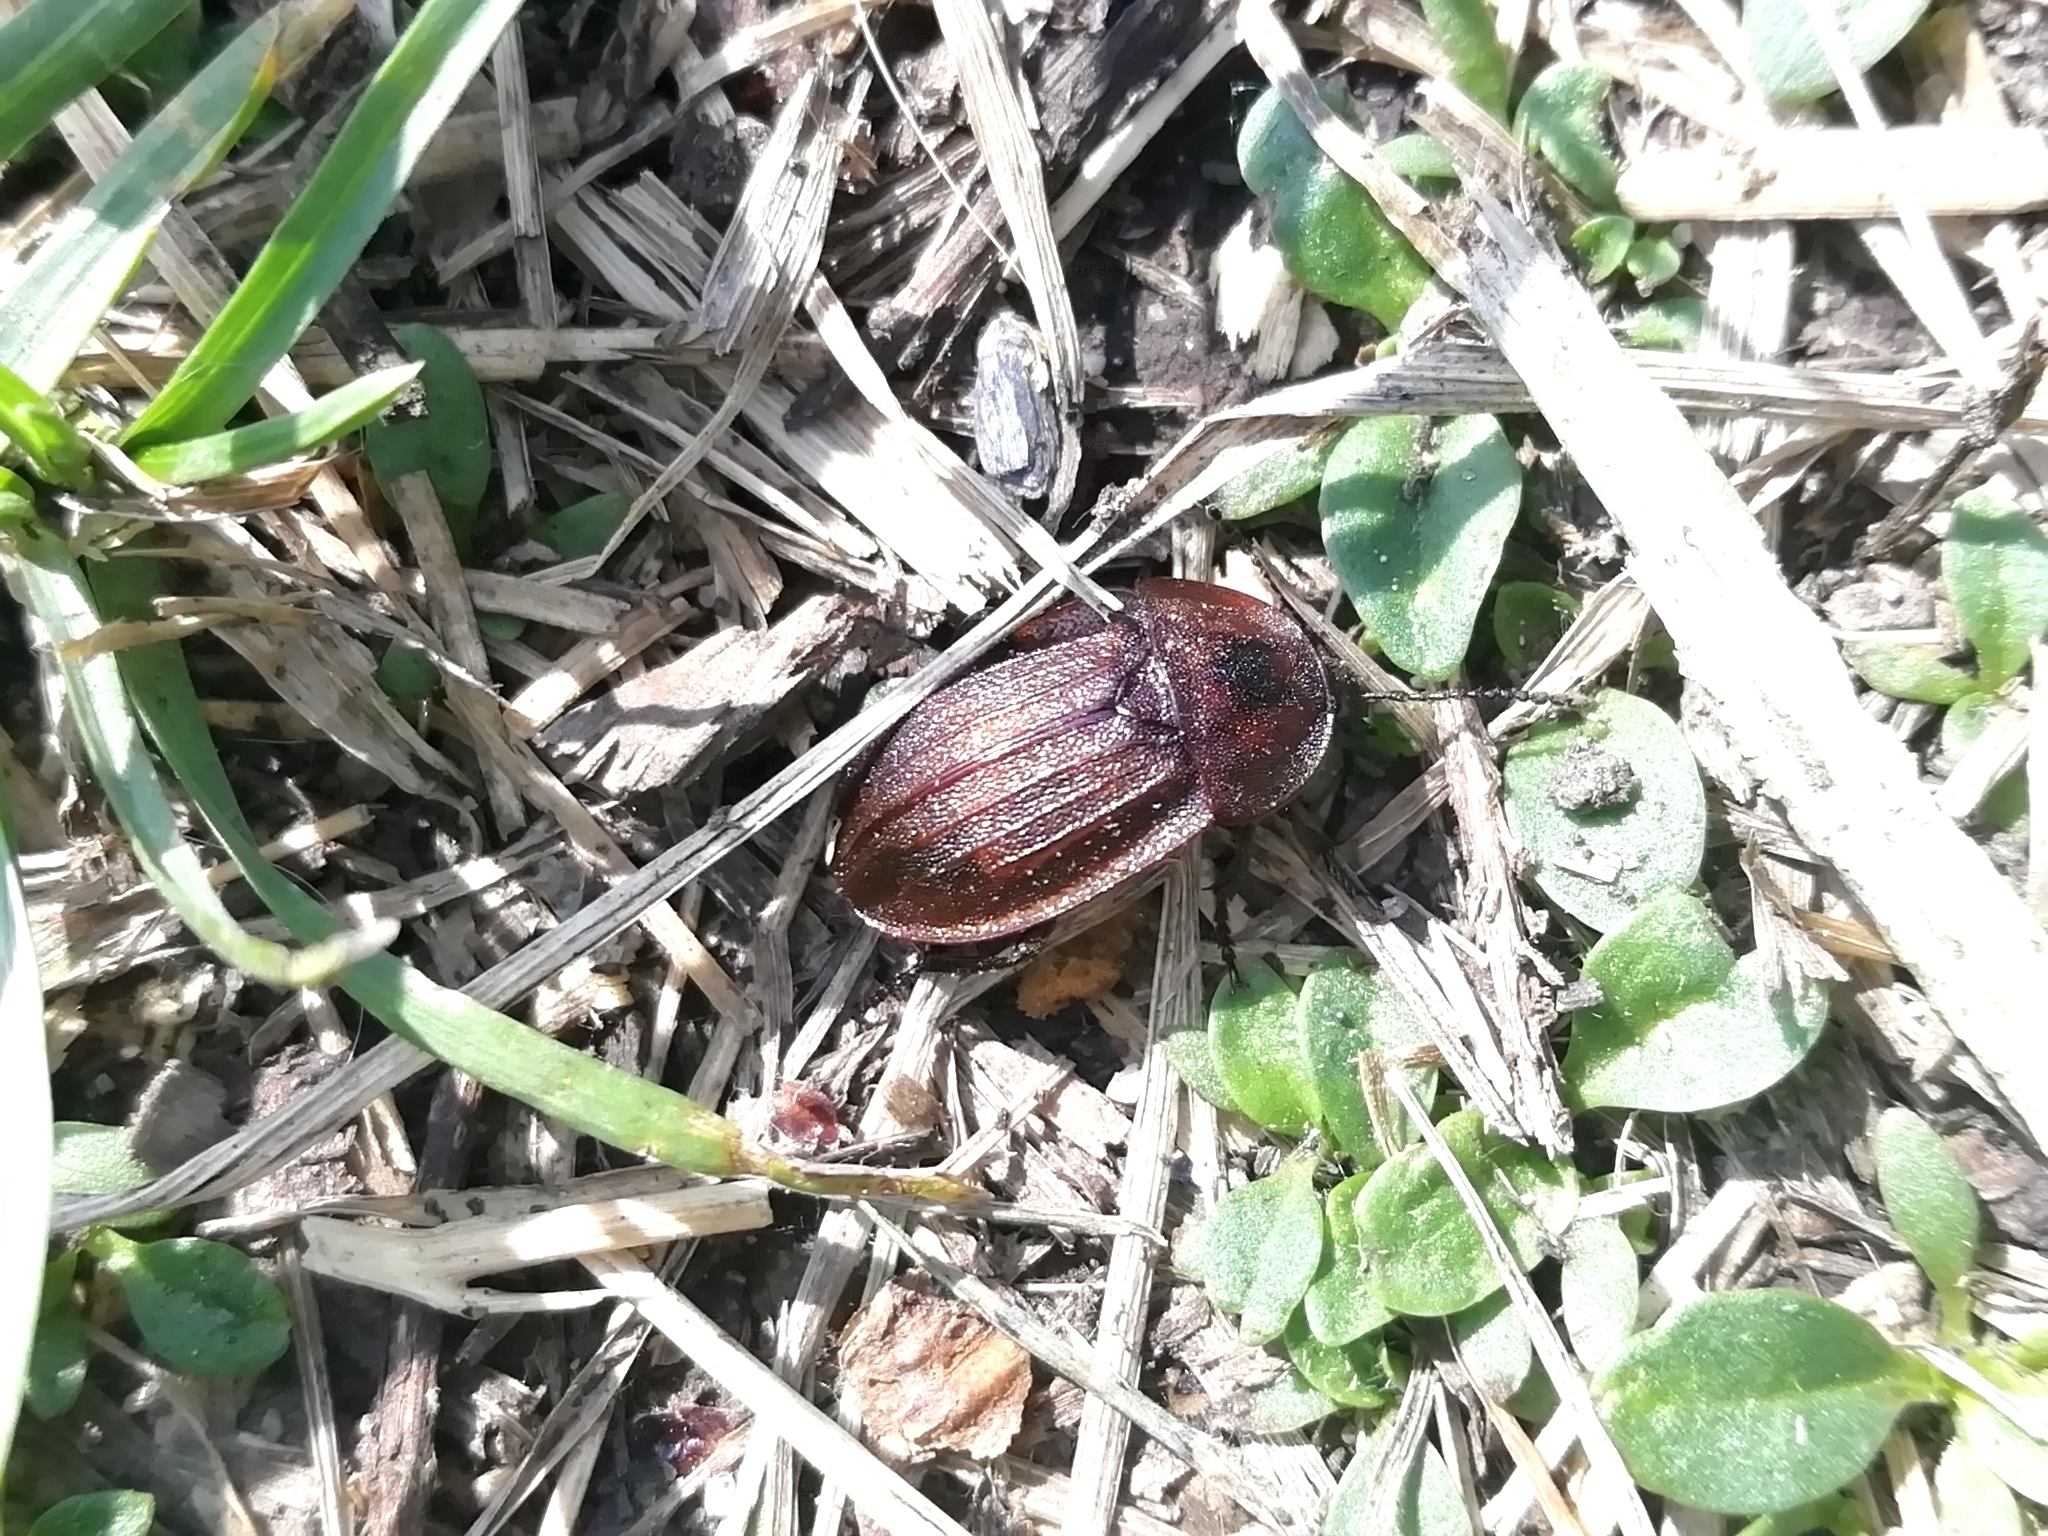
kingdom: Animalia
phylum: Arthropoda
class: Insecta
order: Coleoptera
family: Staphylinidae
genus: Silpha
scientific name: Silpha atrata
